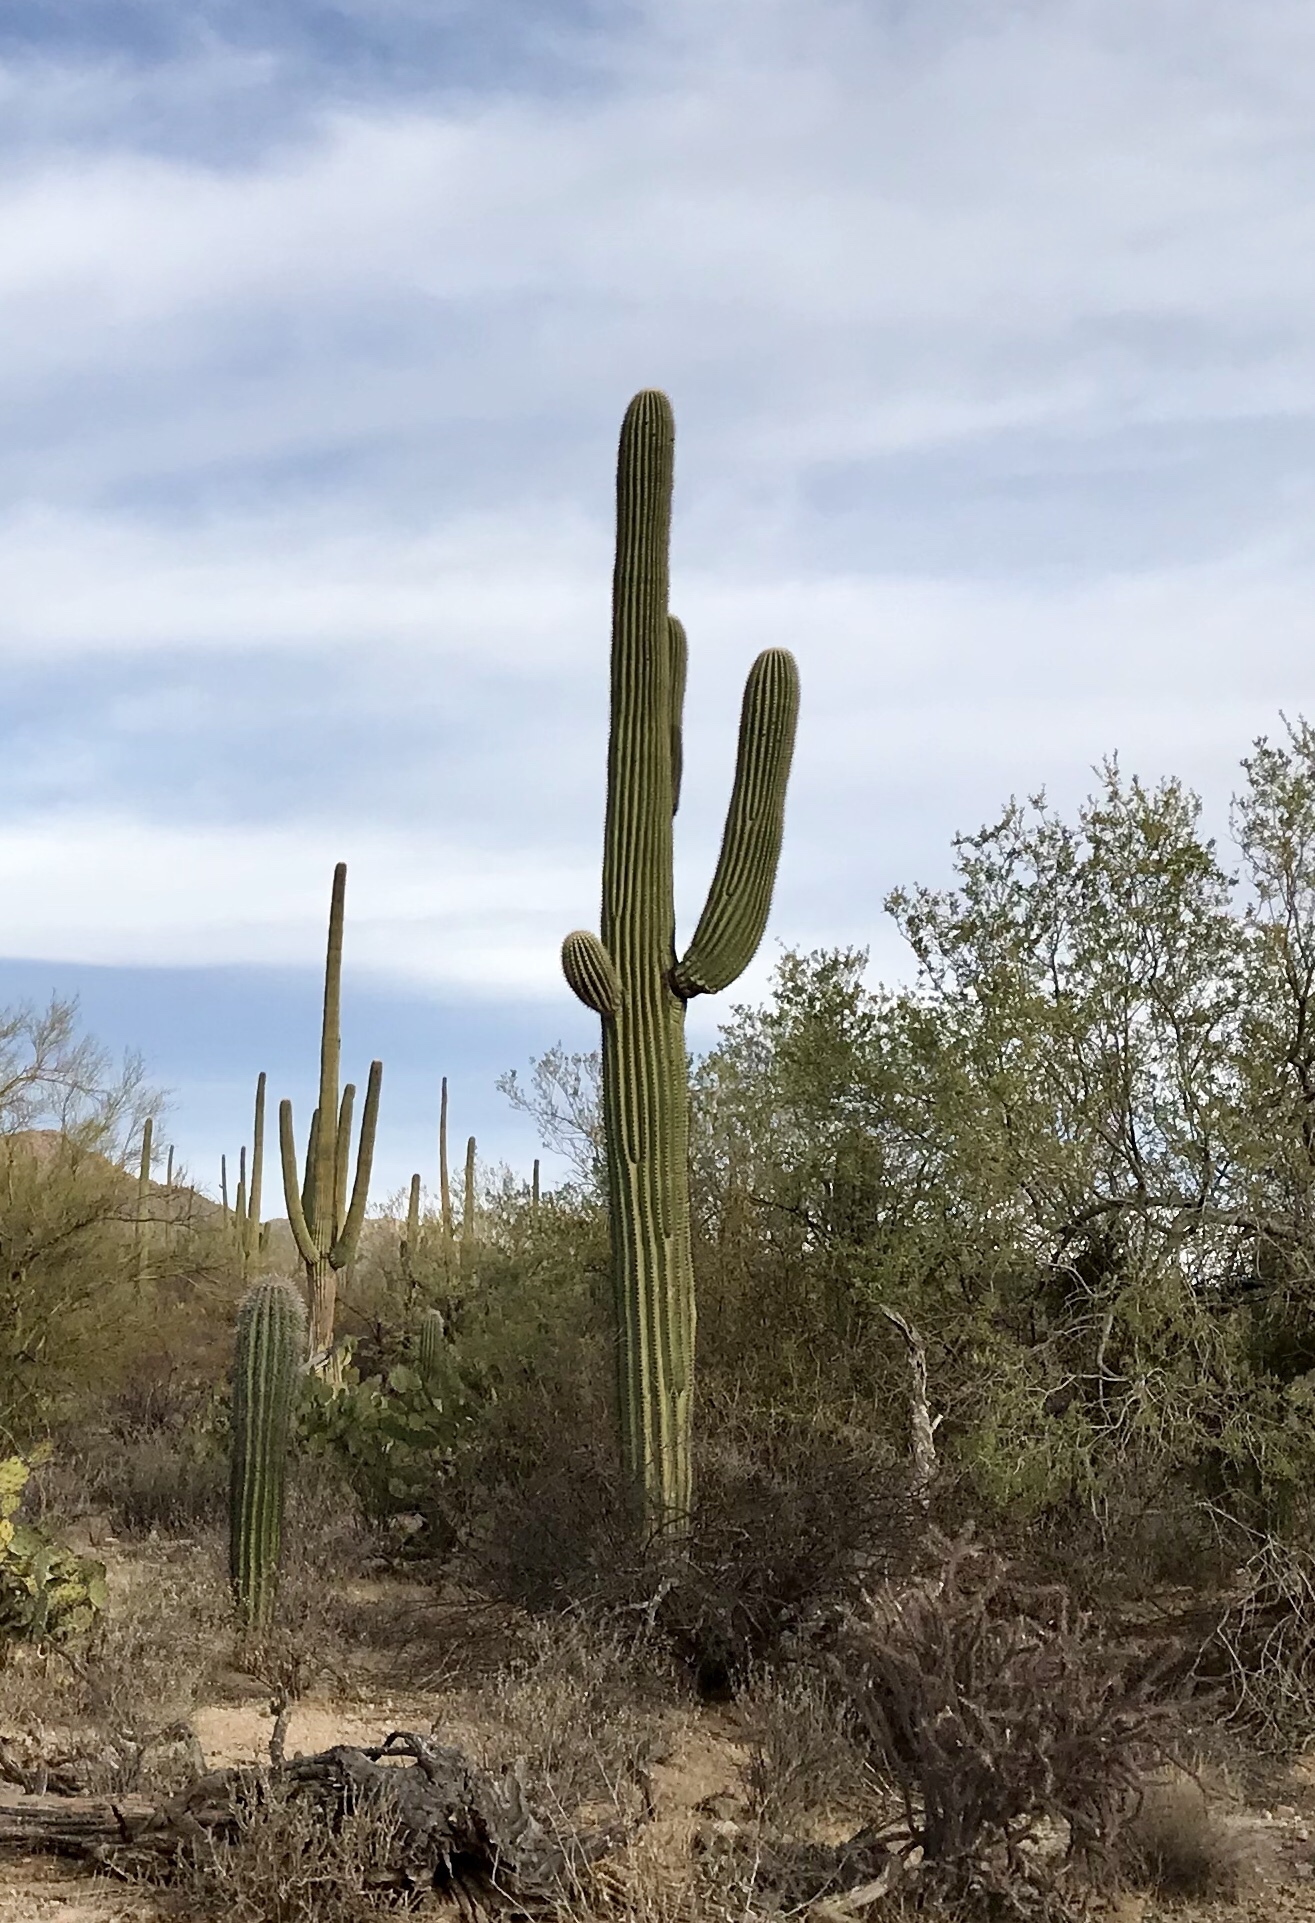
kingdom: Plantae
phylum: Tracheophyta
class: Magnoliopsida
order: Caryophyllales
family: Cactaceae
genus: Carnegiea
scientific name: Carnegiea gigantea
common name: Saguaro
